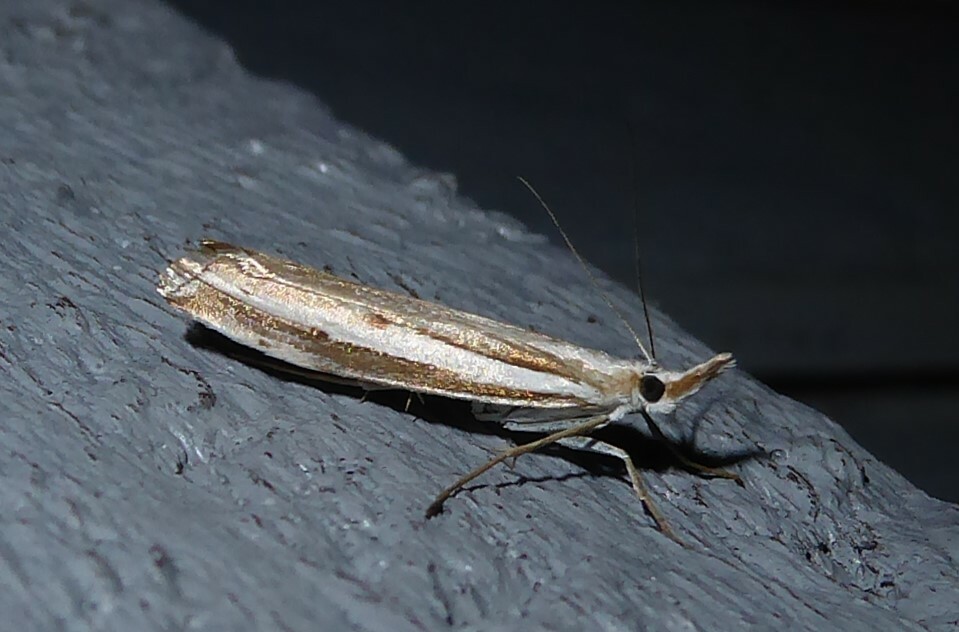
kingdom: Animalia
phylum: Arthropoda
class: Insecta
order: Lepidoptera
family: Crambidae
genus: Orocrambus
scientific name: Orocrambus vittellus
